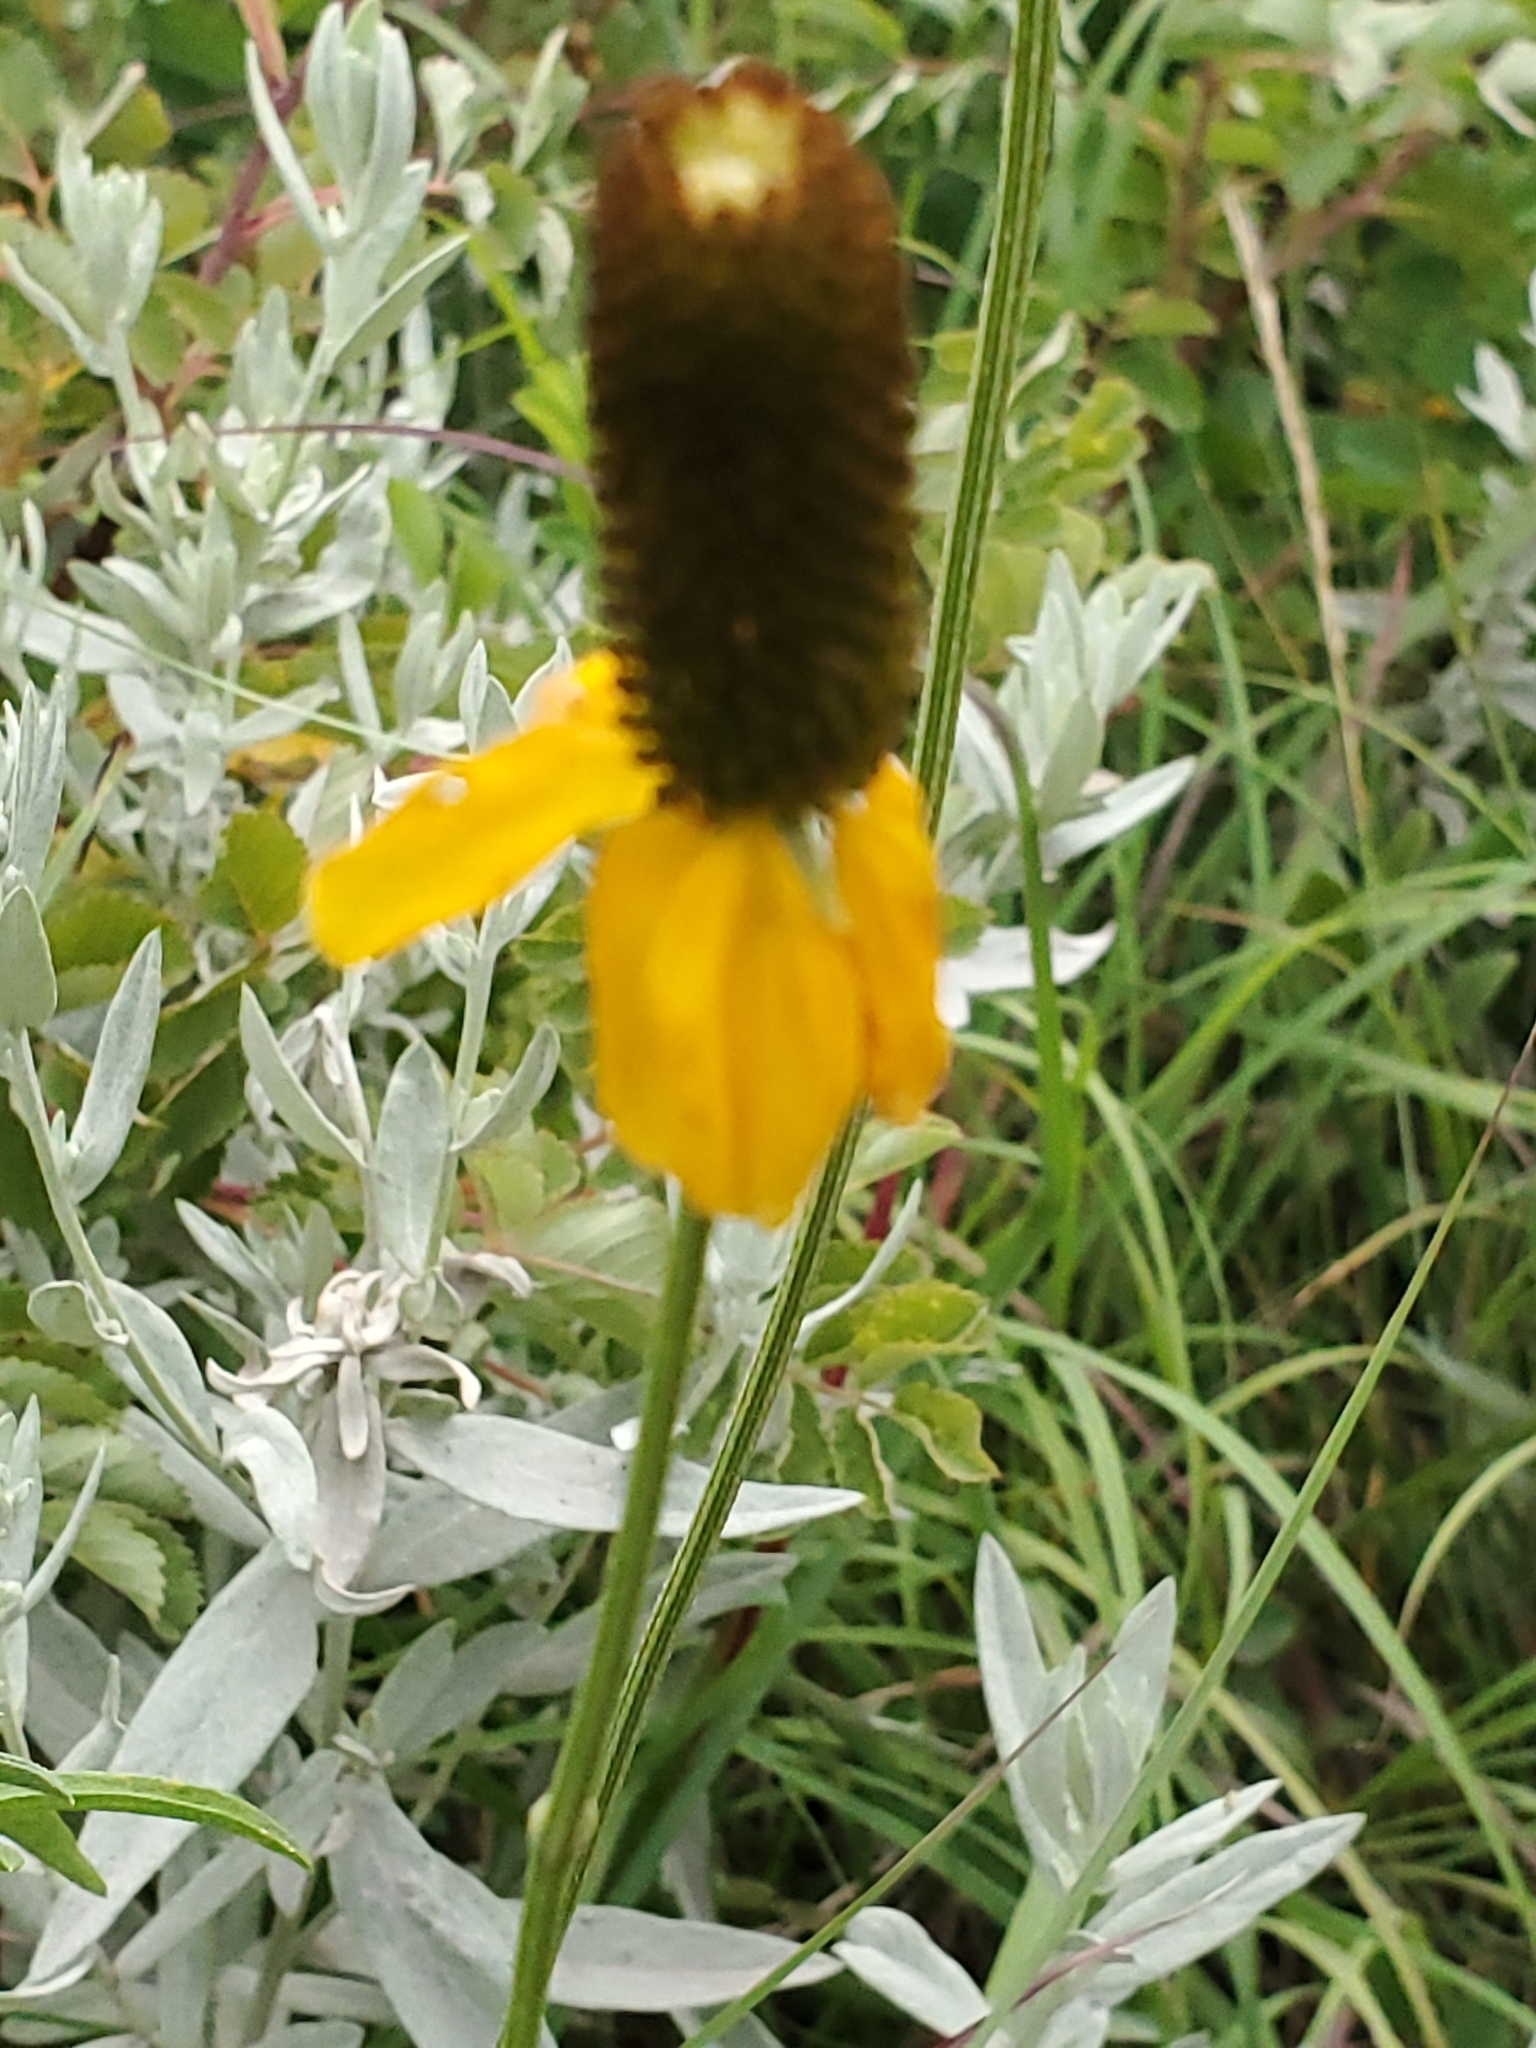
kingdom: Plantae
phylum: Tracheophyta
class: Magnoliopsida
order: Asterales
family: Asteraceae
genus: Ratibida
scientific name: Ratibida columnifera
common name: Prairie coneflower
